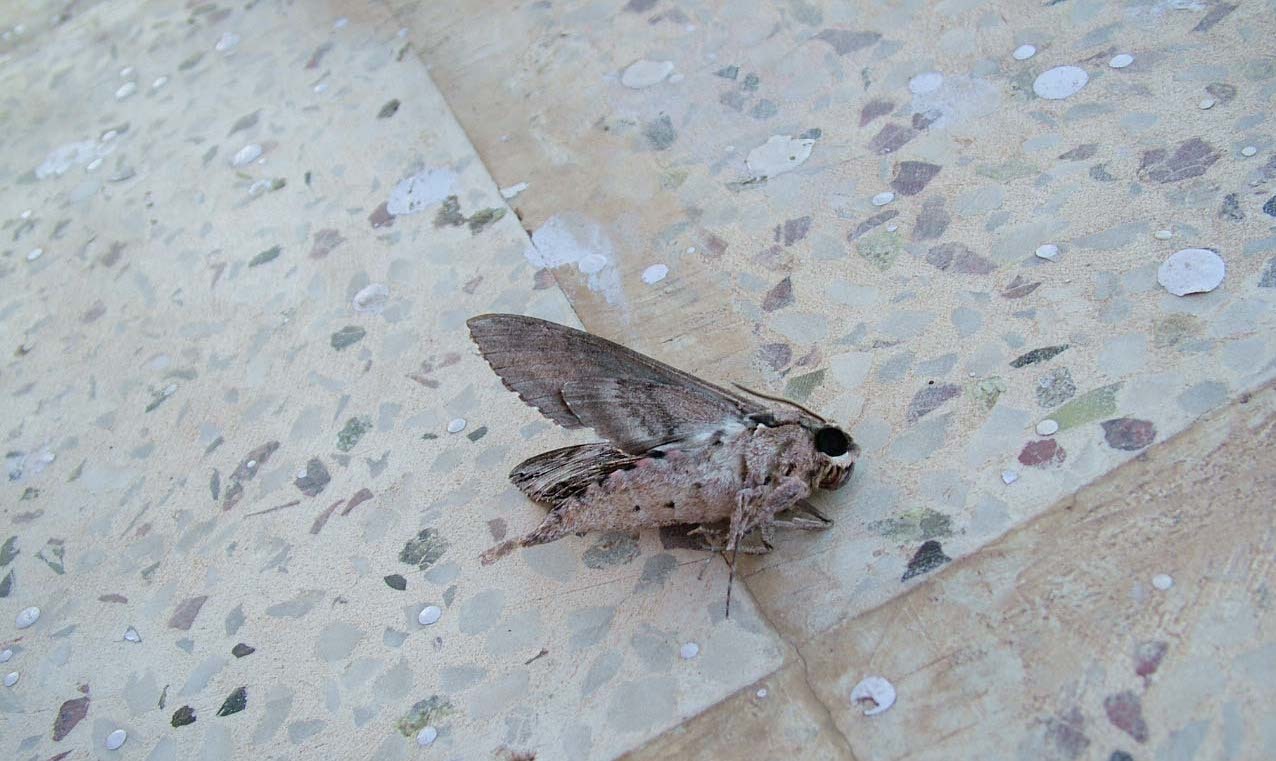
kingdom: Animalia
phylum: Arthropoda
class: Insecta
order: Lepidoptera
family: Sphingidae
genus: Agrius
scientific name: Agrius convolvuli
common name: Convolvulus hawkmoth
